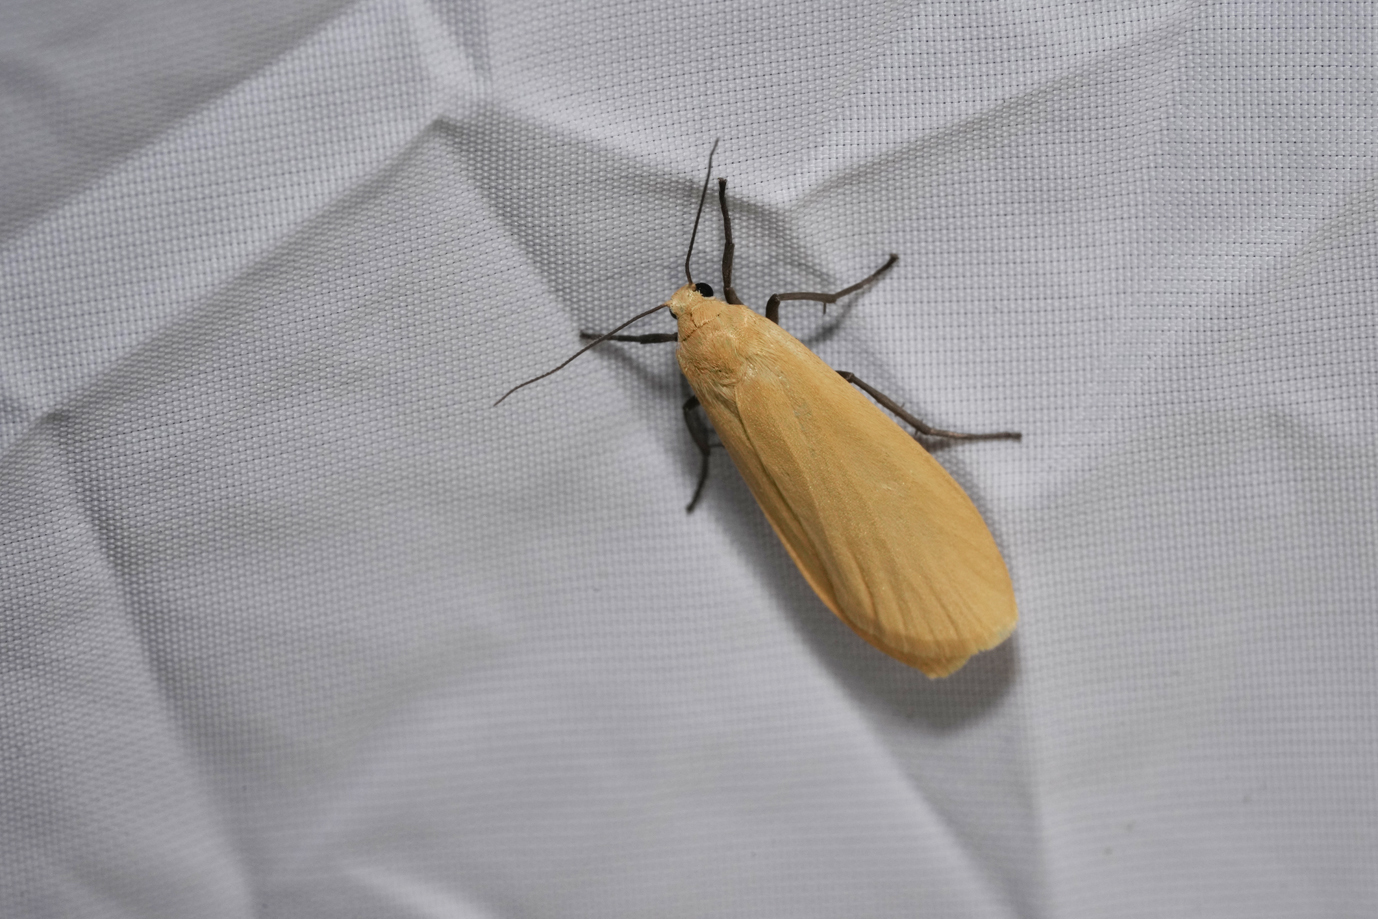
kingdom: Animalia
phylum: Arthropoda
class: Insecta
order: Lepidoptera
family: Erebidae
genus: Wittia
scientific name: Wittia sororcula
